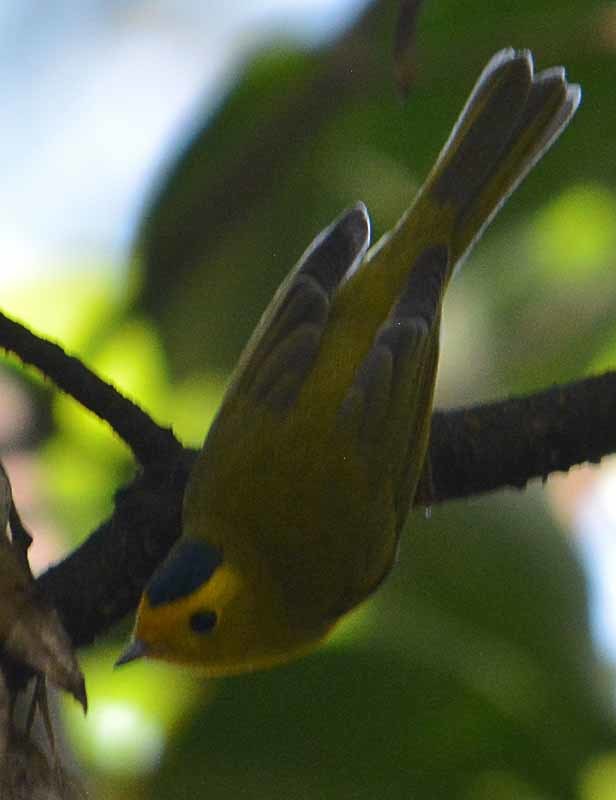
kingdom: Animalia
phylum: Chordata
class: Aves
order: Passeriformes
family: Parulidae
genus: Cardellina
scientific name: Cardellina pusilla
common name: Wilson's warbler
